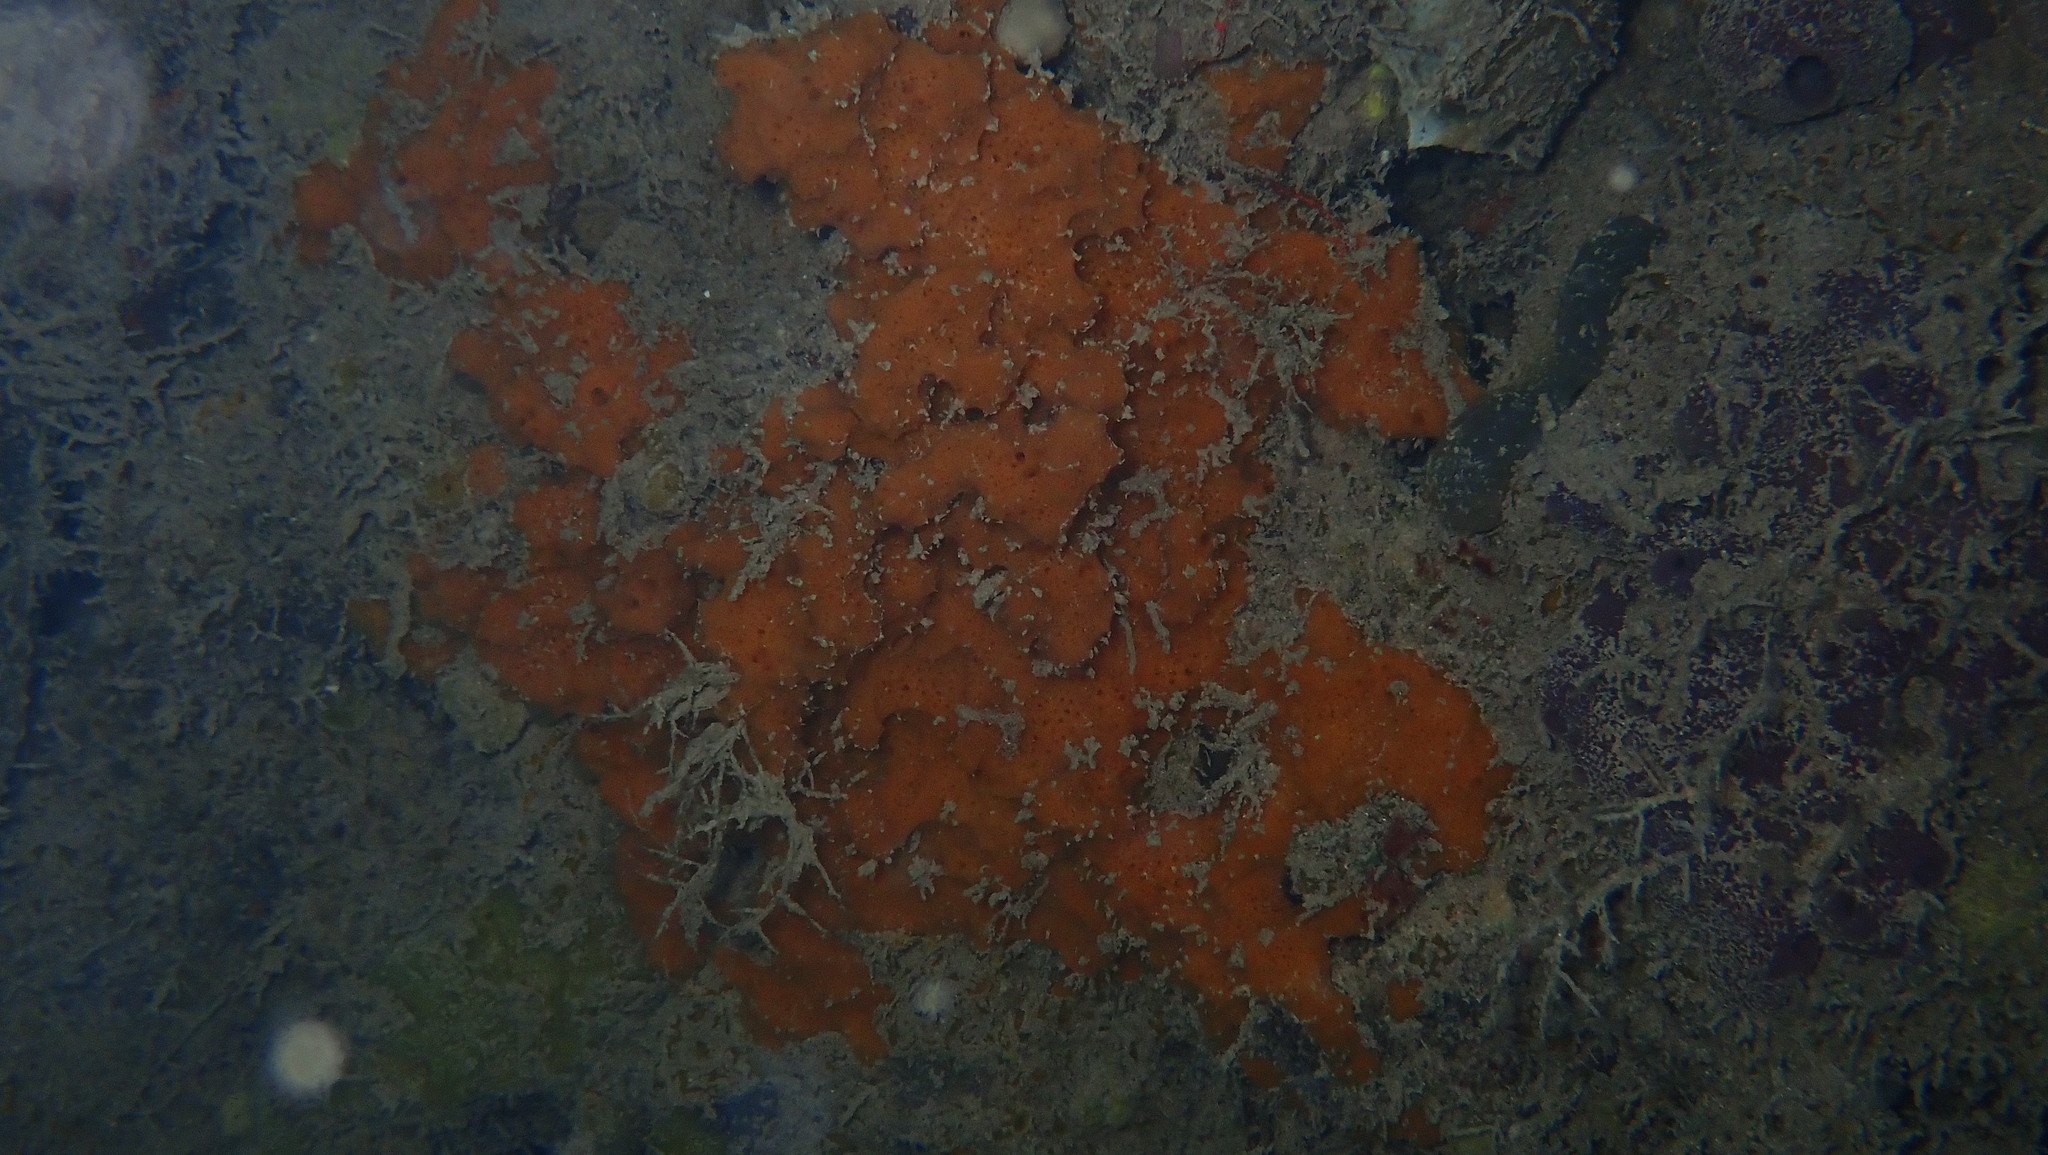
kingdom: Animalia
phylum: Porifera
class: Demospongiae
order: Scopalinida
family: Scopalinidae
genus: Scopalina
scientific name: Scopalina ruetzleri
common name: Orange lumpy encrusting sponge
